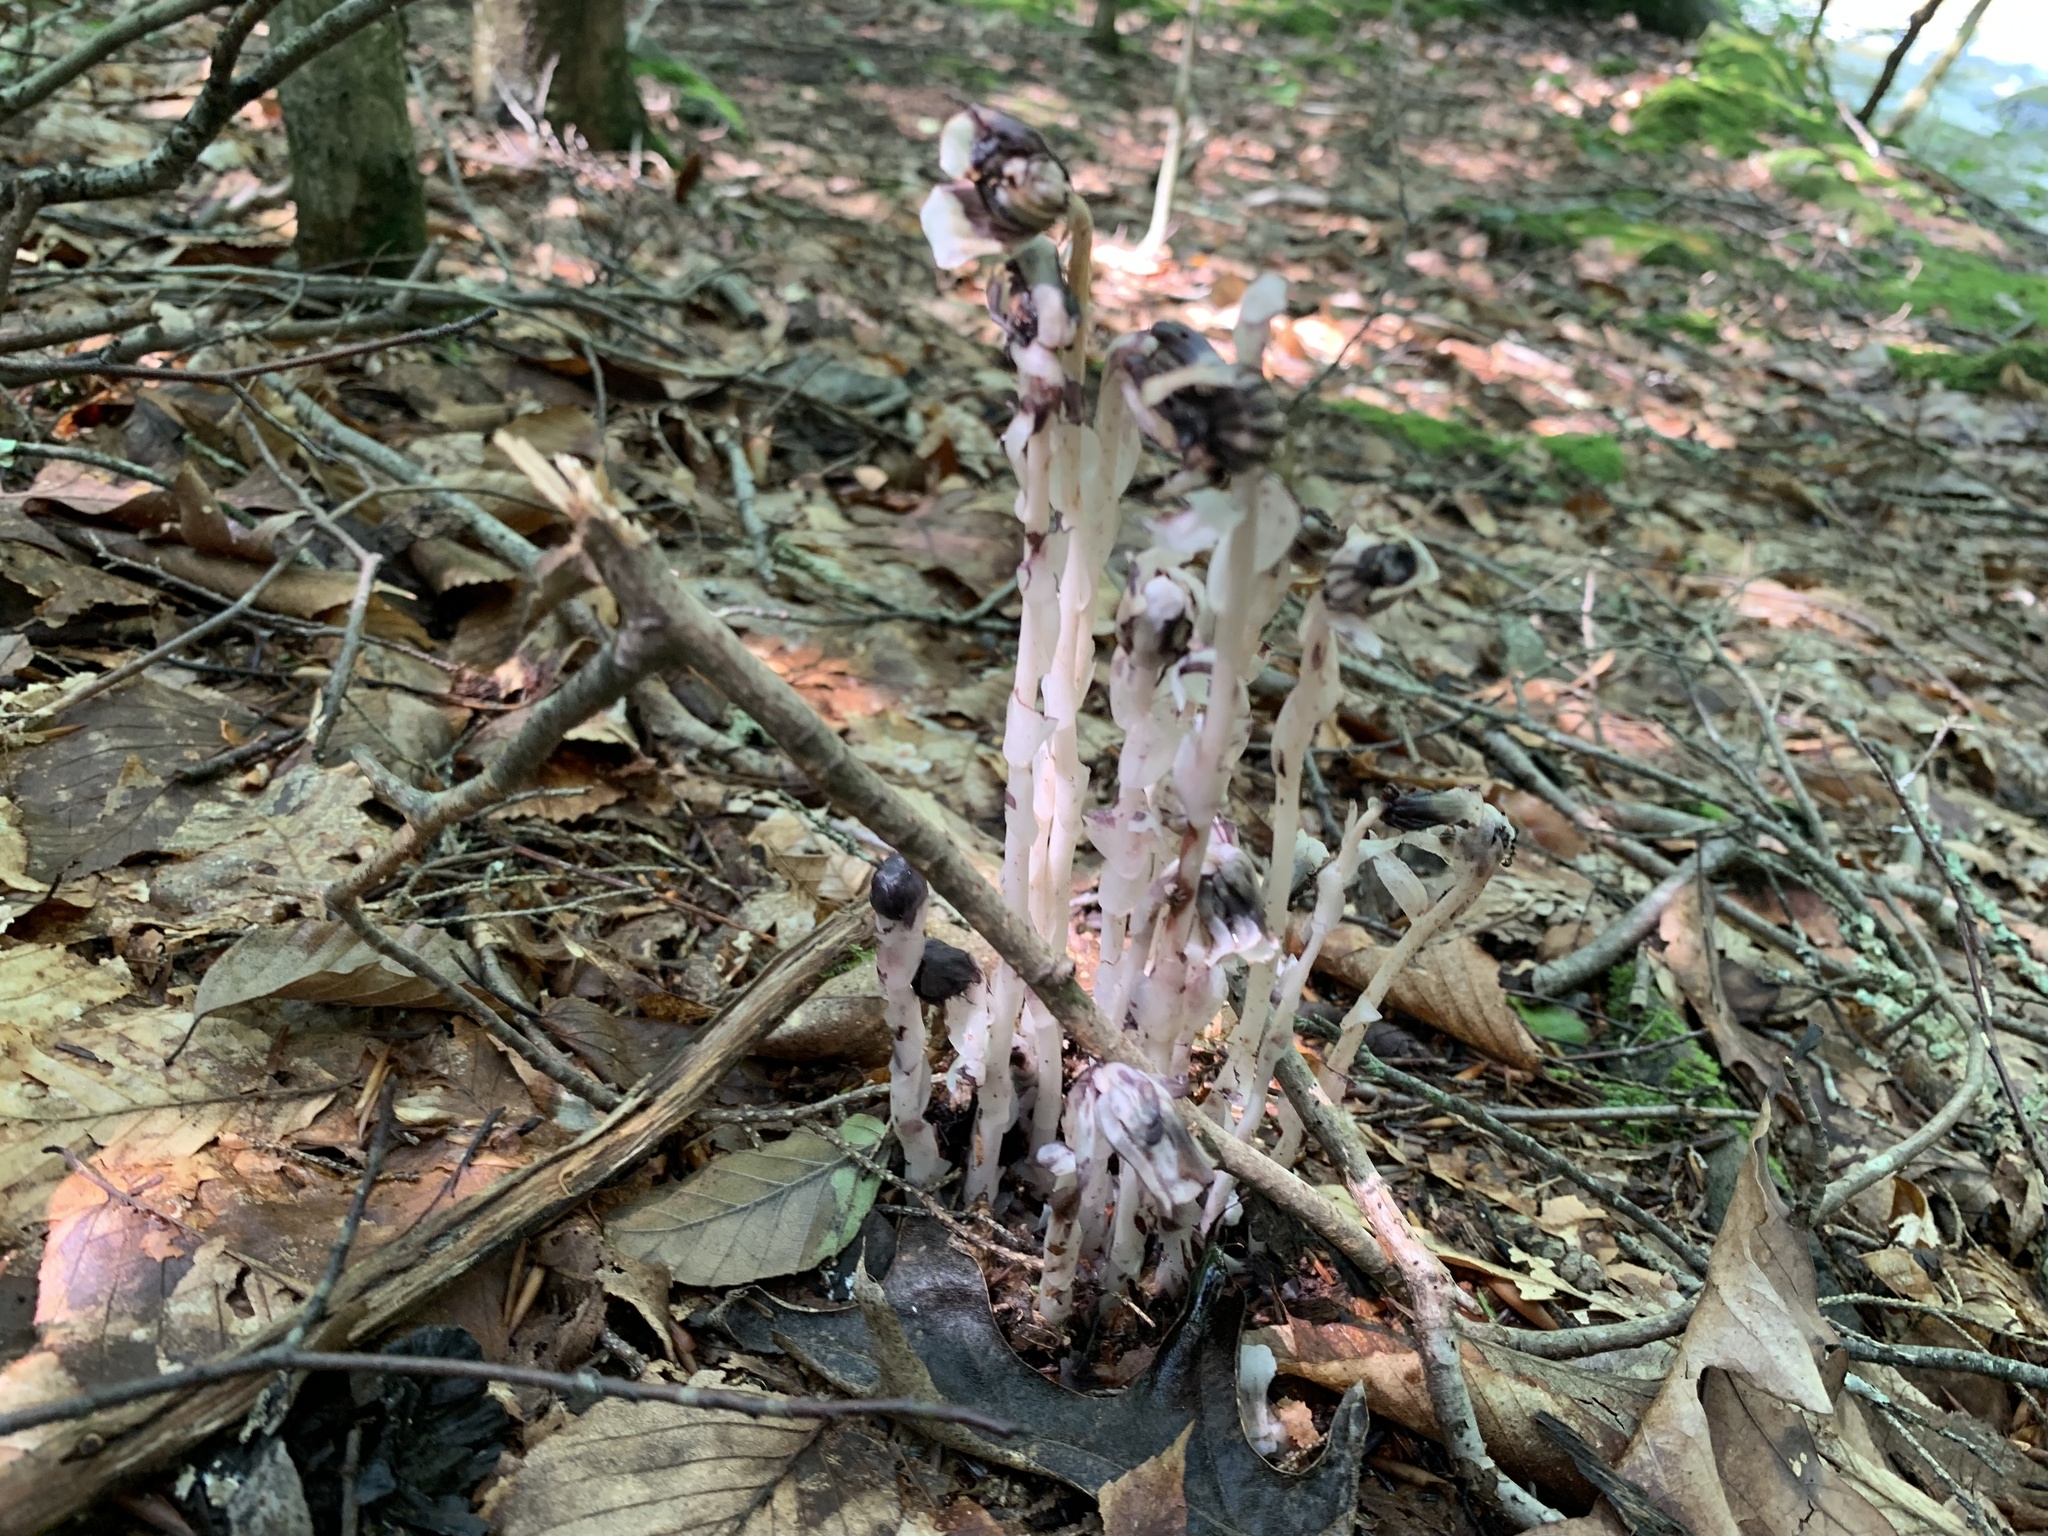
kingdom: Plantae
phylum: Tracheophyta
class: Magnoliopsida
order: Ericales
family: Ericaceae
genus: Monotropa
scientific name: Monotropa uniflora
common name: Convulsion root
